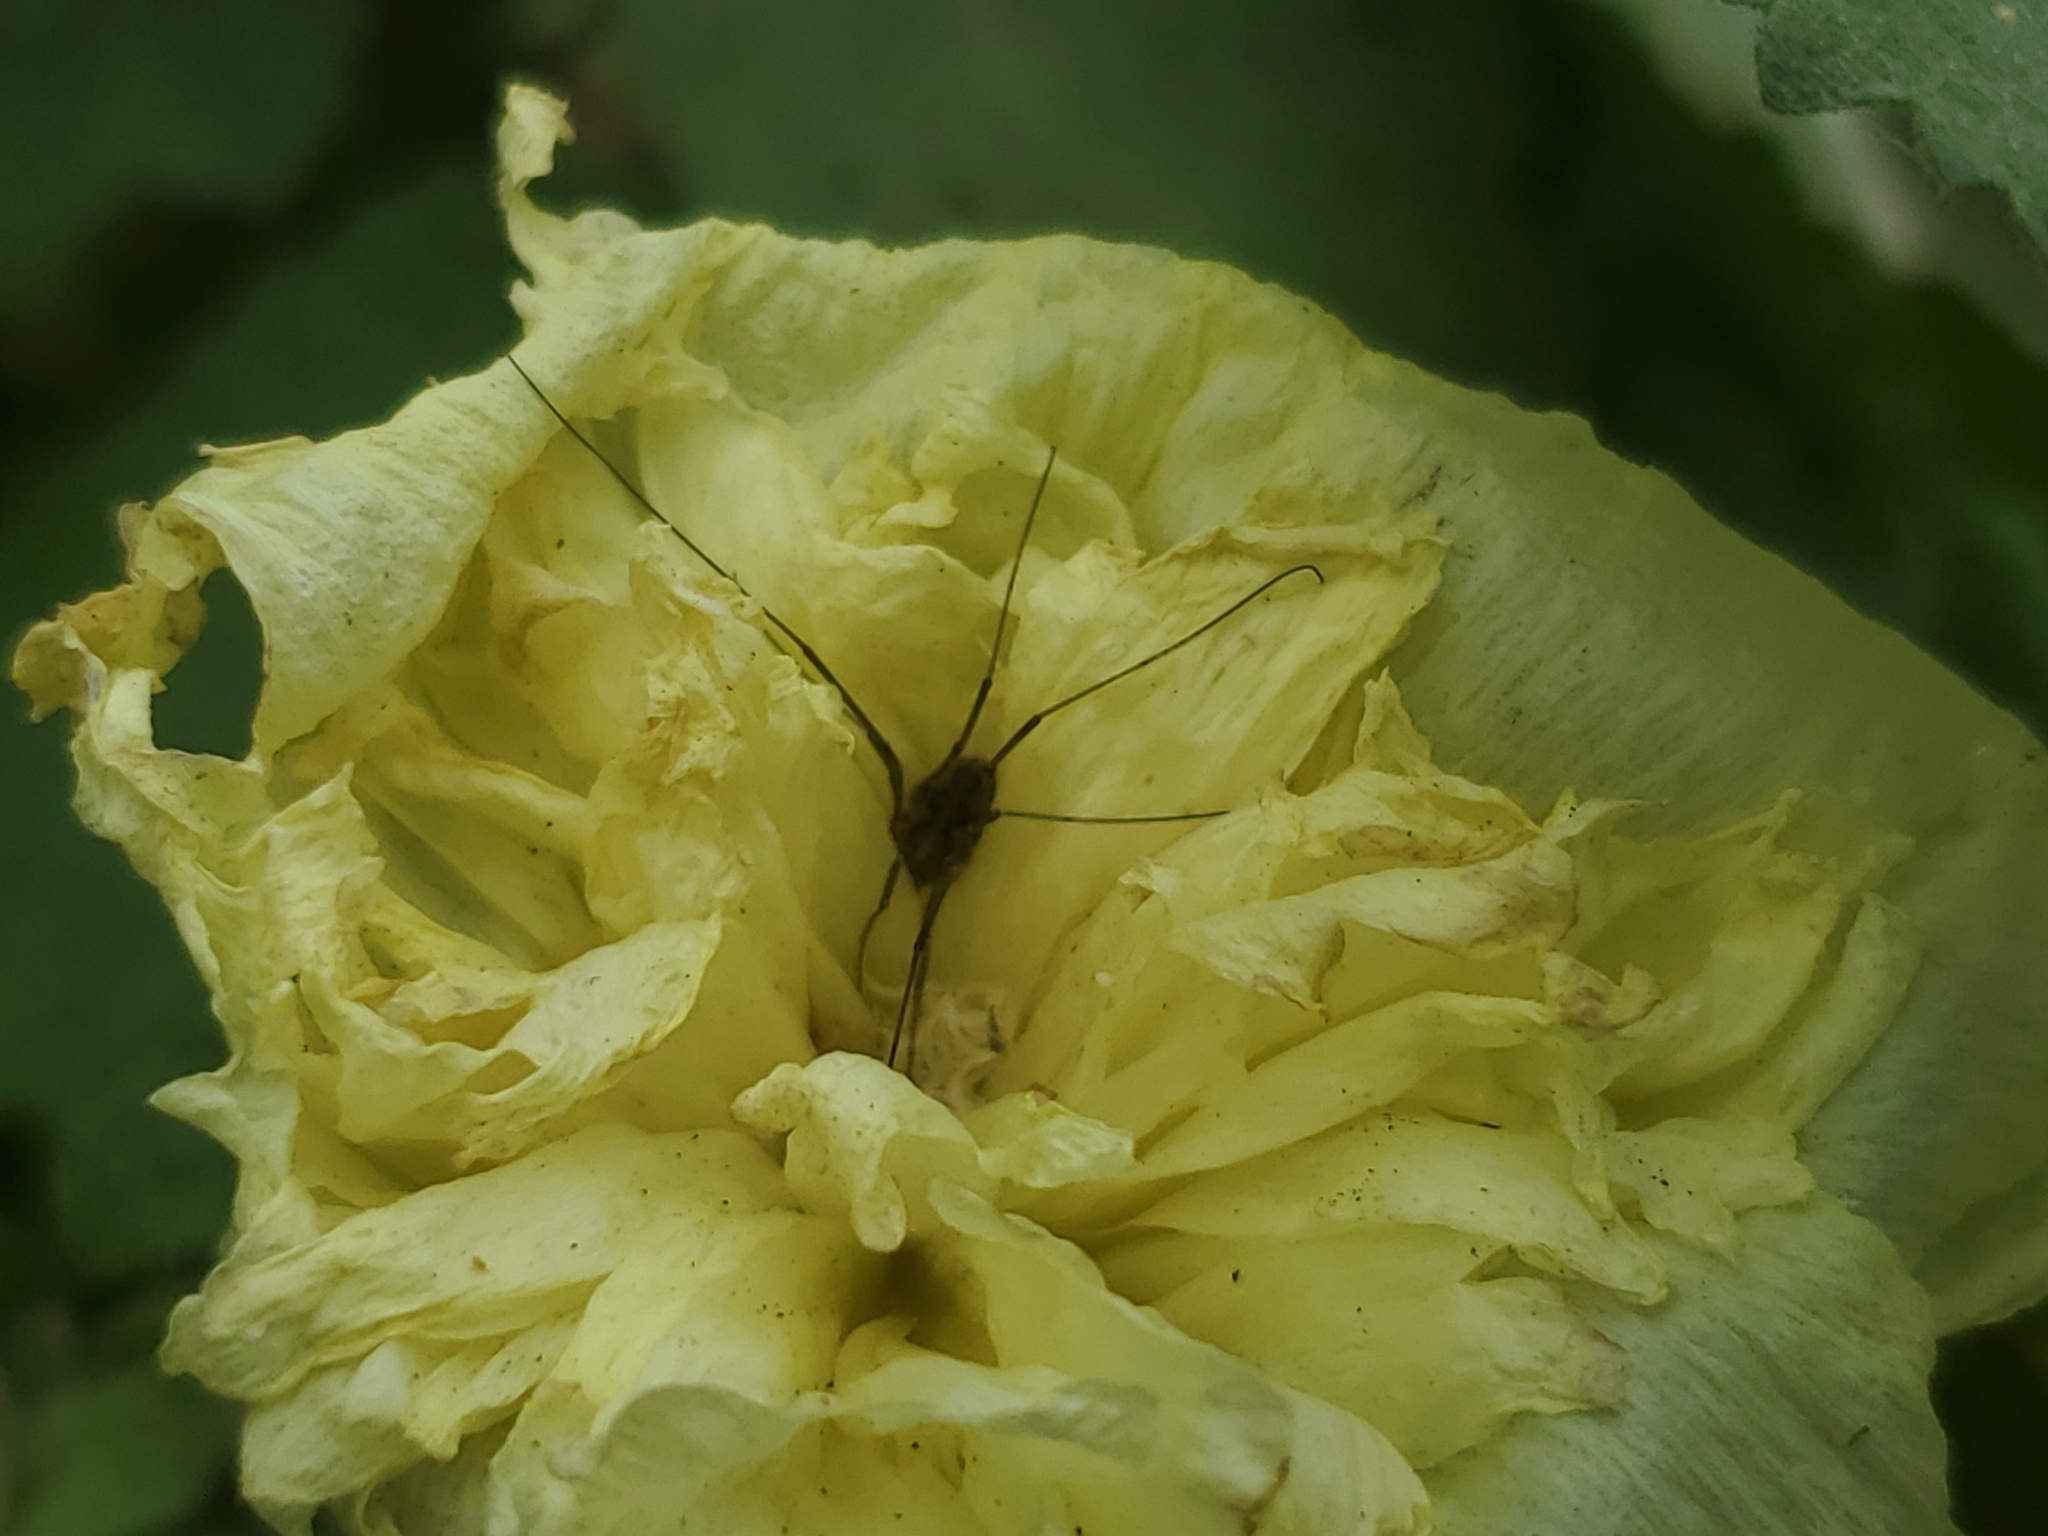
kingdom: Animalia
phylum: Arthropoda
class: Arachnida
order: Opiliones
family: Phalangiidae
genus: Phalangium
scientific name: Phalangium opilio
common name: Daddy longleg
